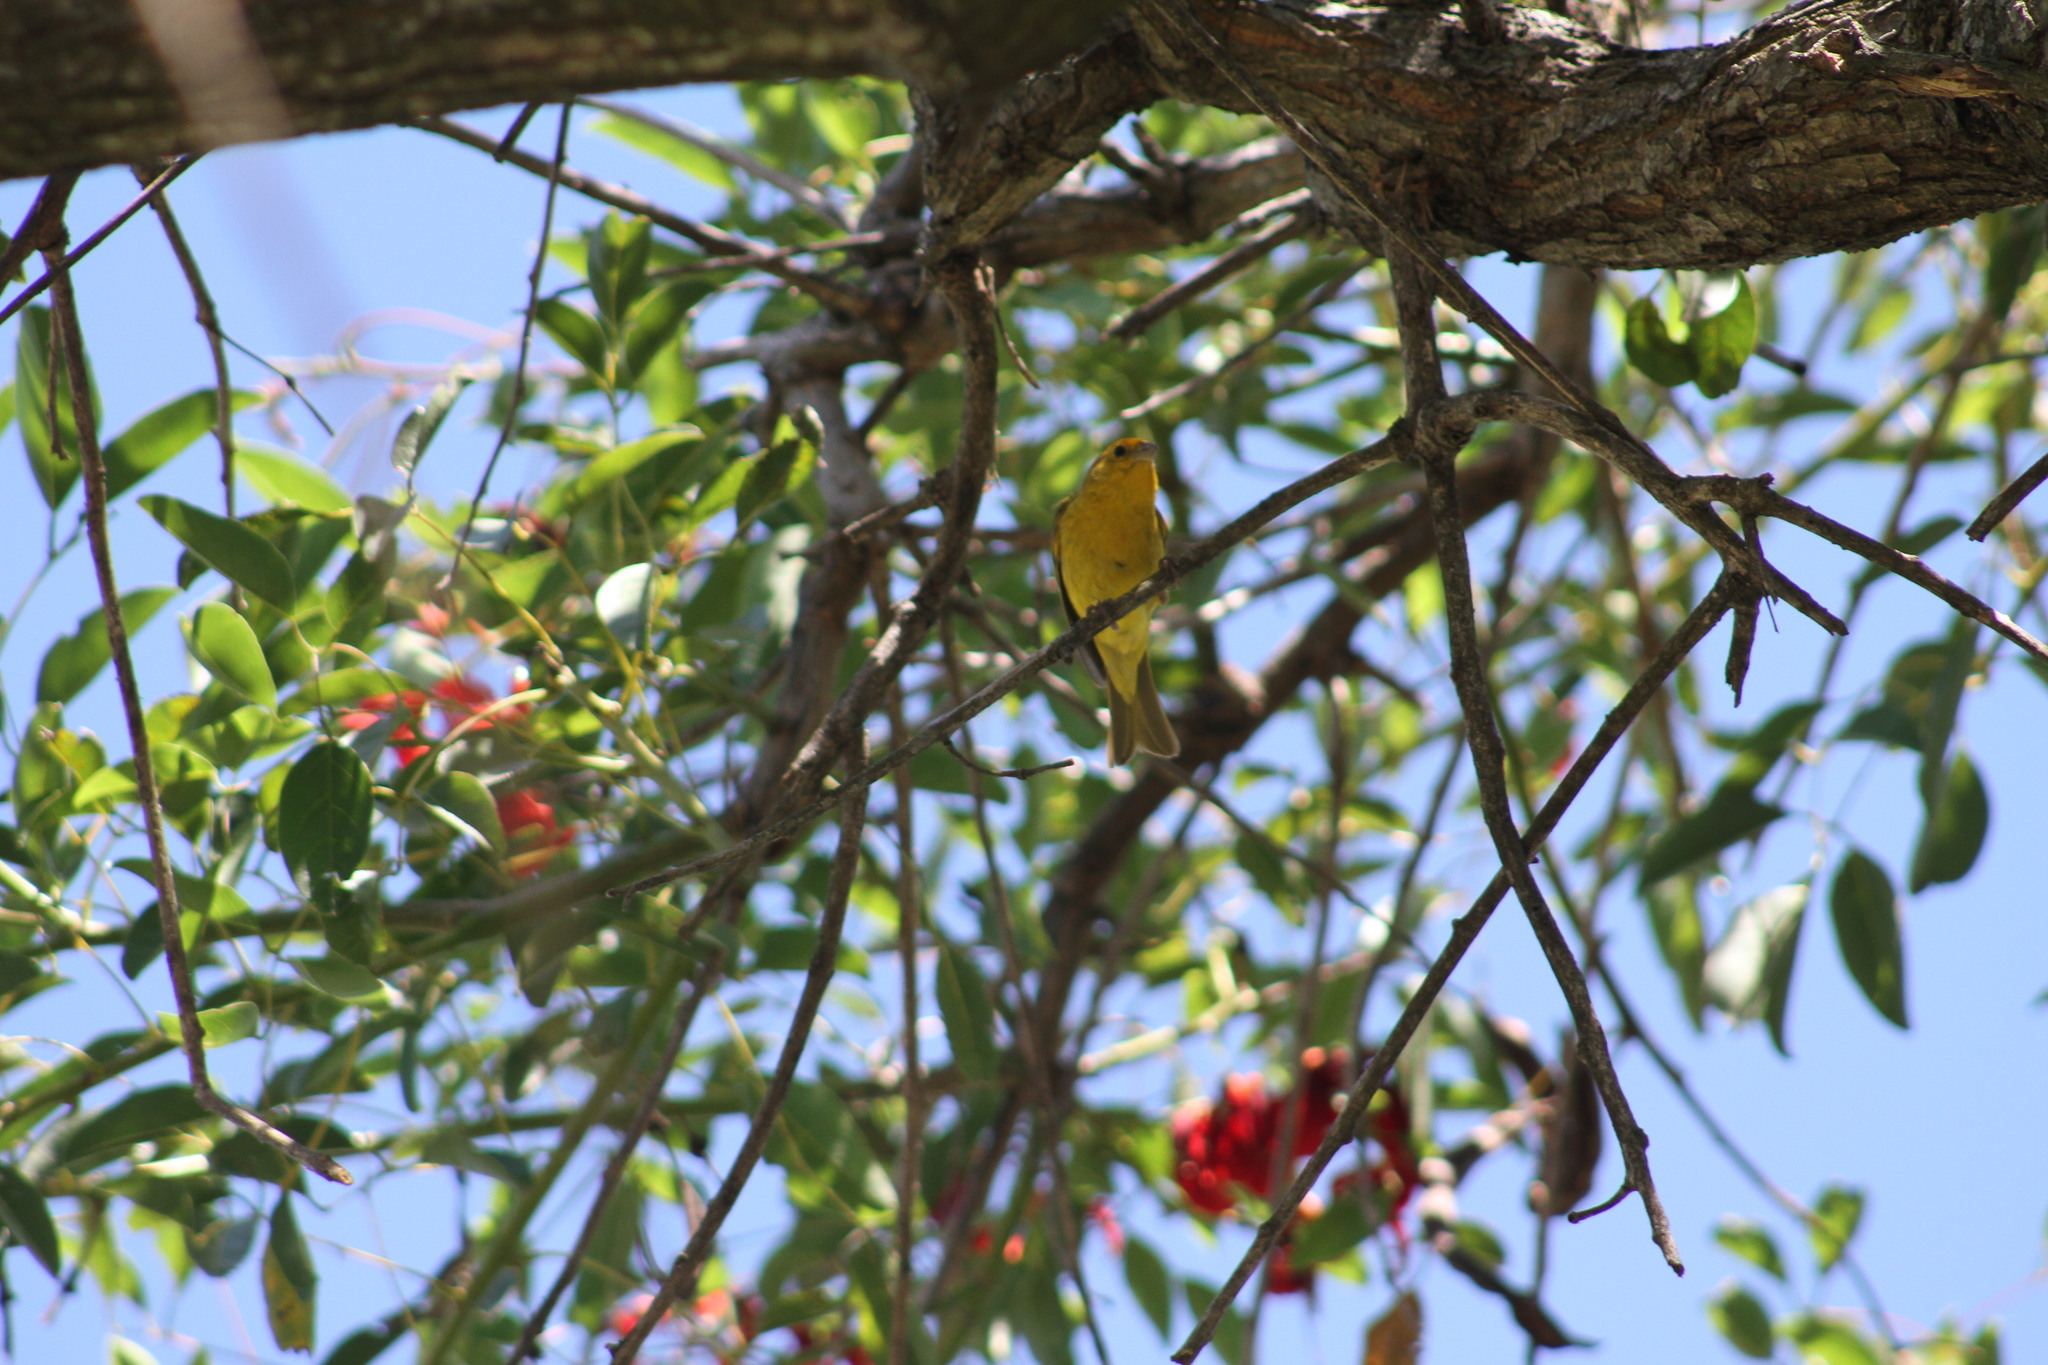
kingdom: Animalia
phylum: Chordata
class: Aves
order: Passeriformes
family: Thraupidae
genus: Sicalis
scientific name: Sicalis flaveola
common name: Saffron finch
